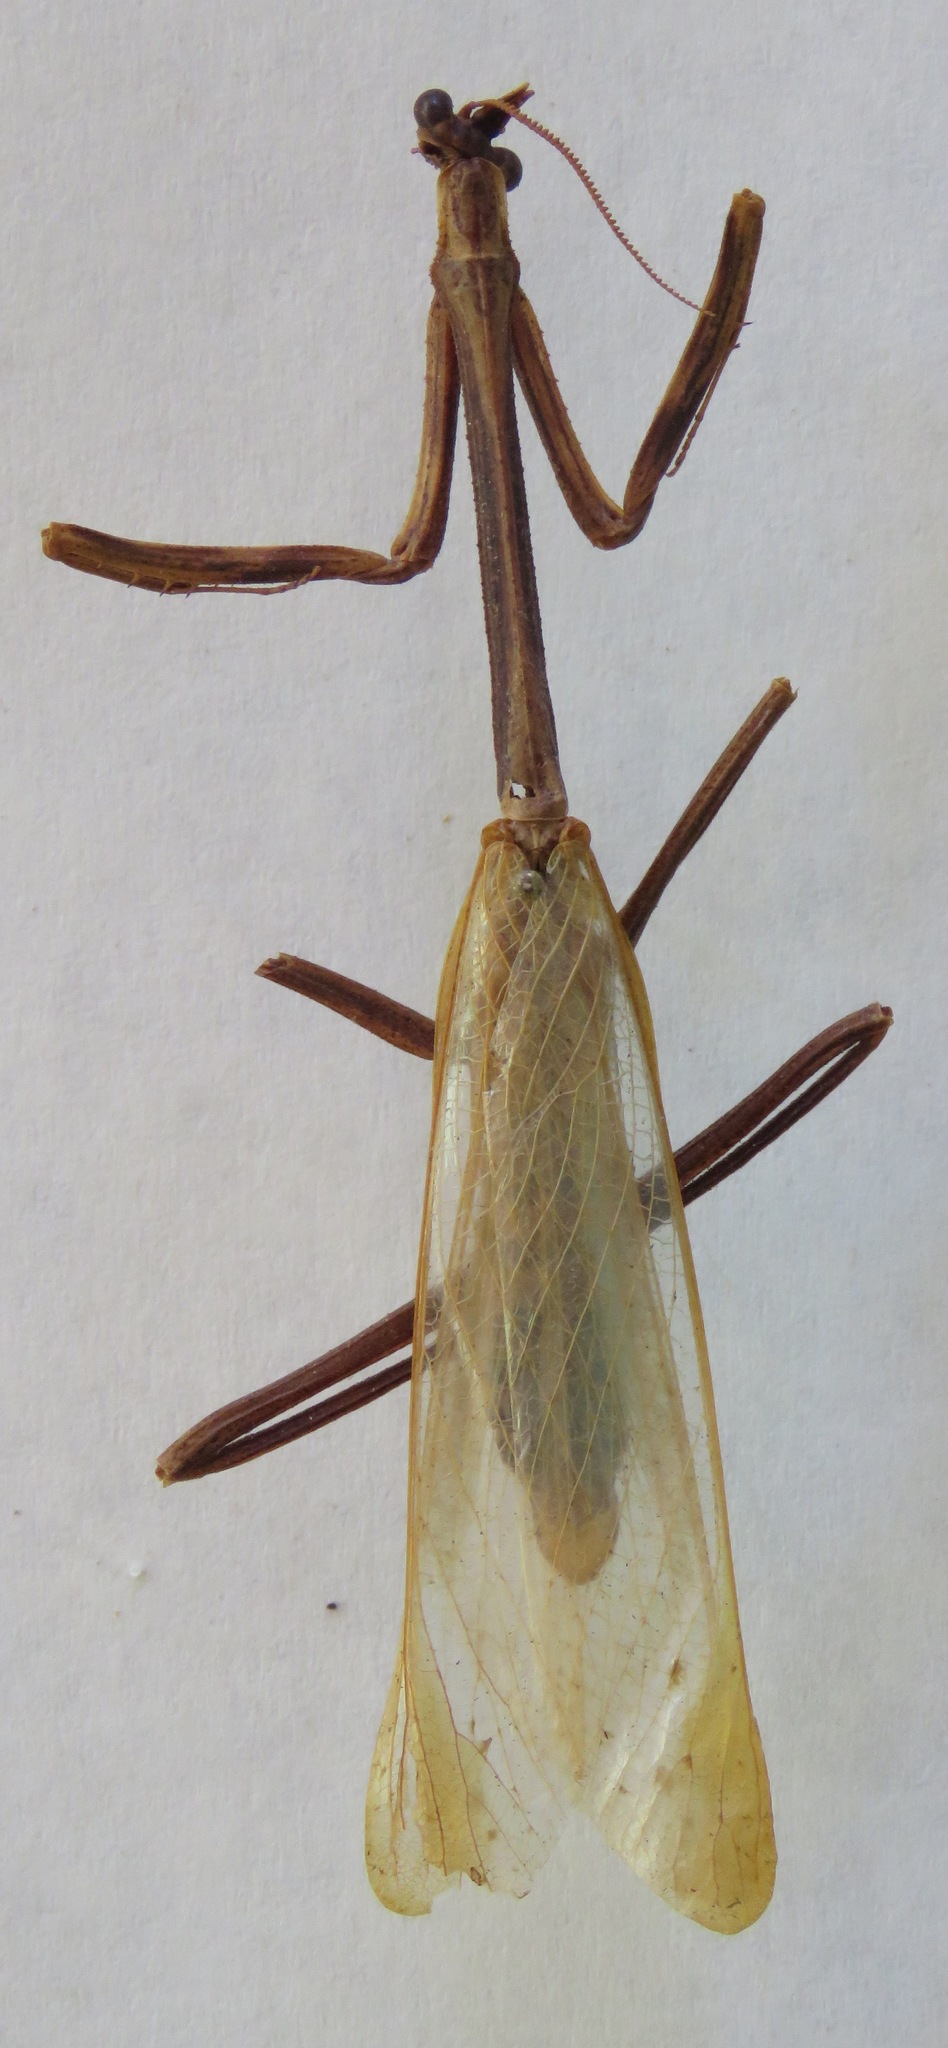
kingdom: Animalia
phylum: Arthropoda
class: Insecta
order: Mantodea
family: Mantidae
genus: Pseudovates
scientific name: Pseudovates chlorophaea
